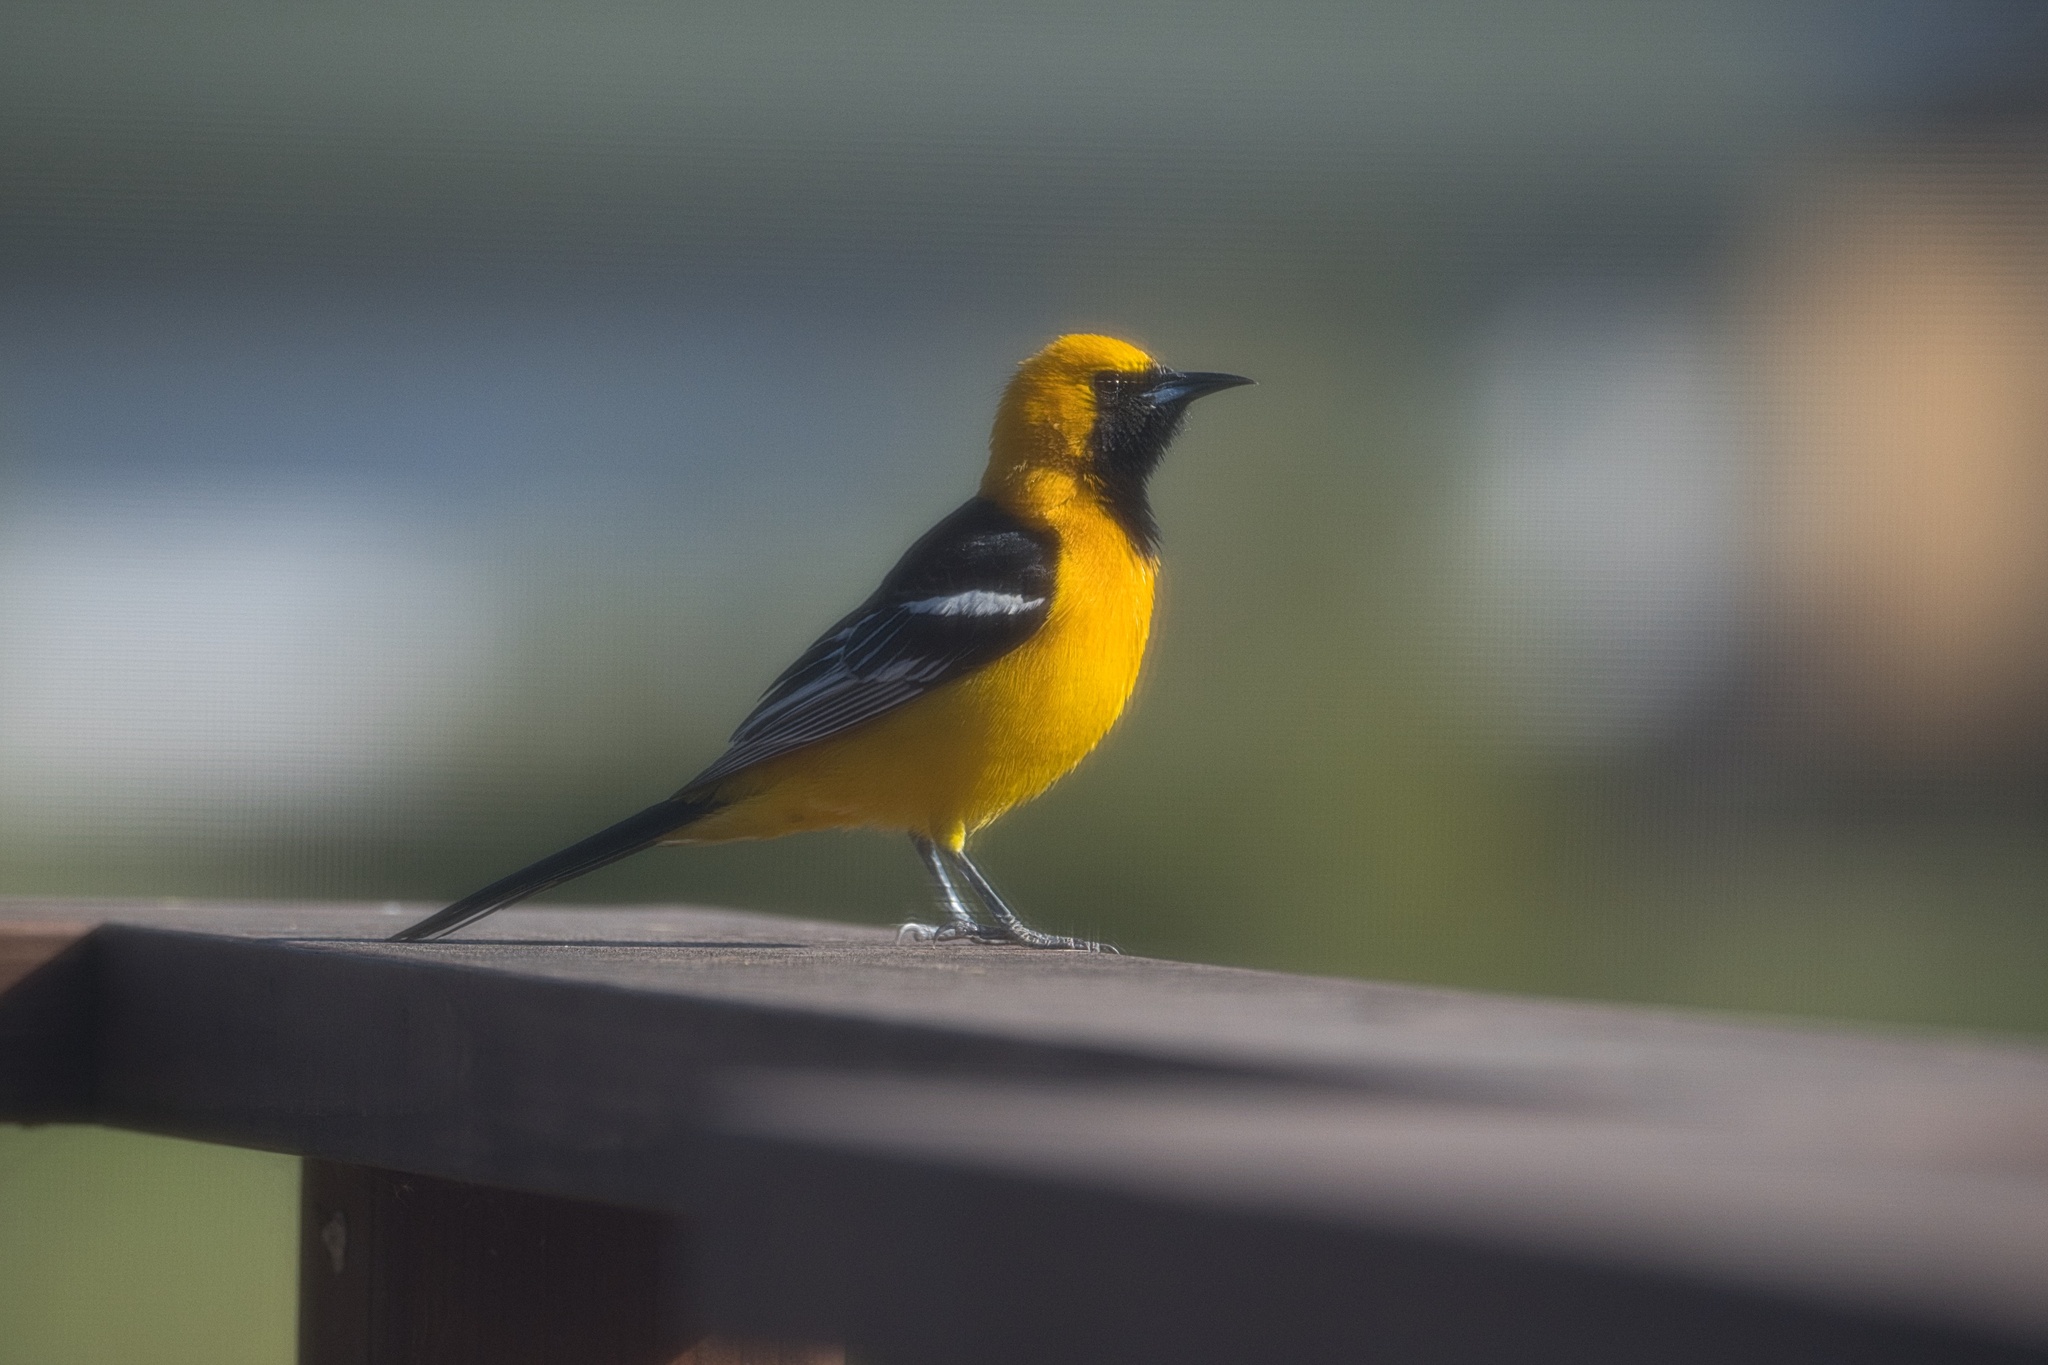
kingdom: Animalia
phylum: Chordata
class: Aves
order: Passeriformes
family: Icteridae
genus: Icterus
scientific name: Icterus cucullatus
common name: Hooded oriole
